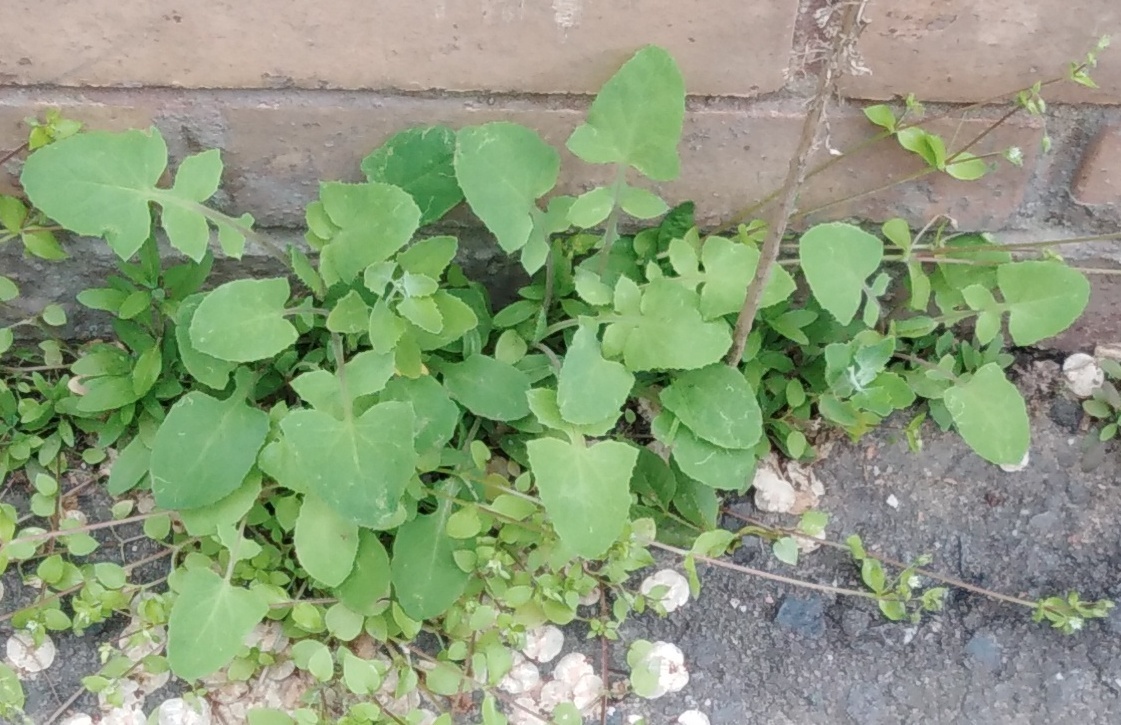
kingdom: Plantae
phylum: Tracheophyta
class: Magnoliopsida
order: Asterales
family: Asteraceae
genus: Sonchus
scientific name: Sonchus oleraceus
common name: Common sowthistle
